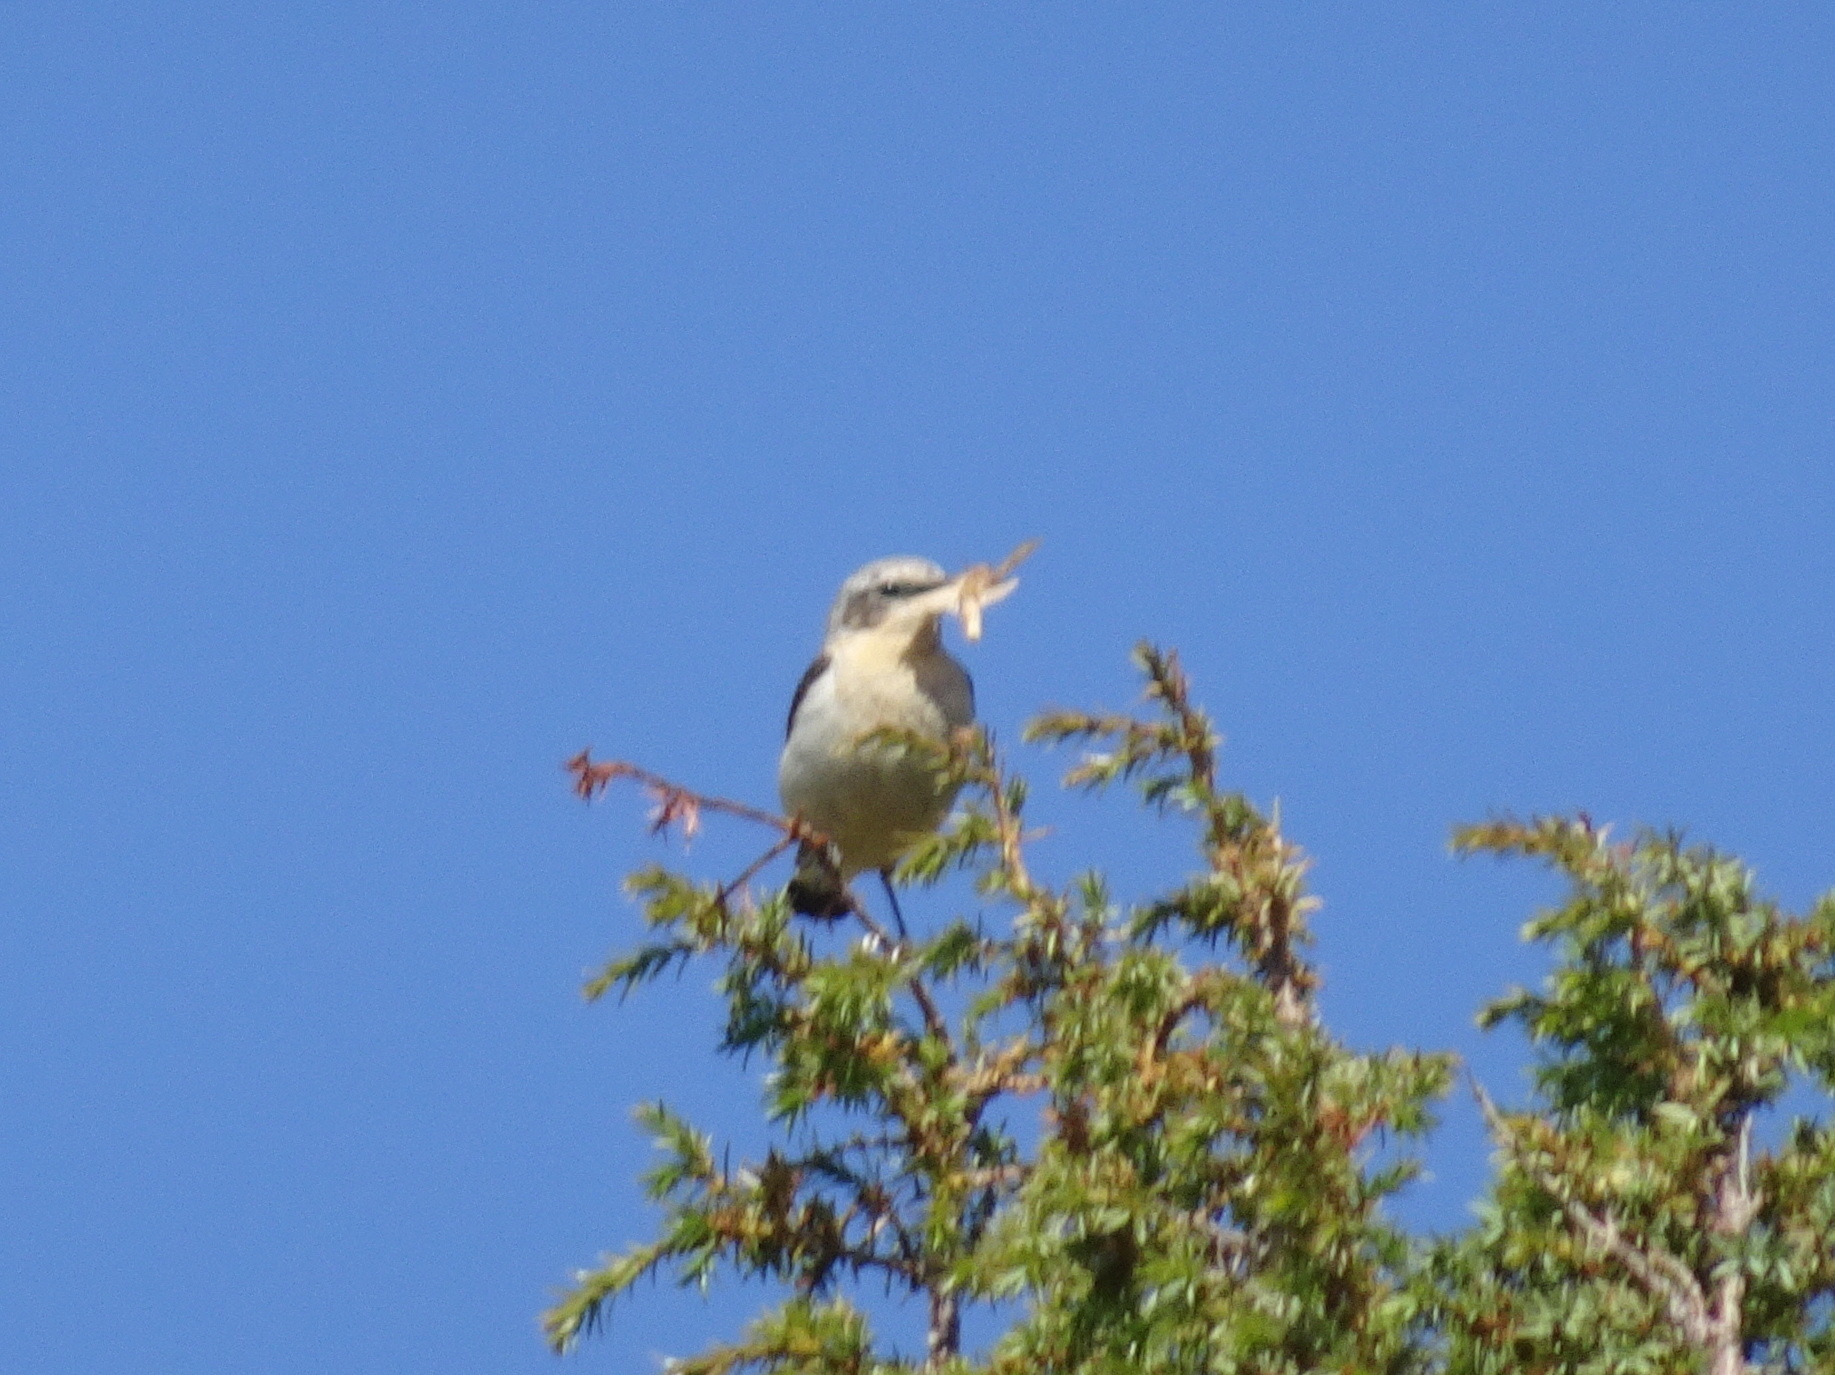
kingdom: Animalia
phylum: Chordata
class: Aves
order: Passeriformes
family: Muscicapidae
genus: Oenanthe
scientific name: Oenanthe oenanthe
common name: Northern wheatear
